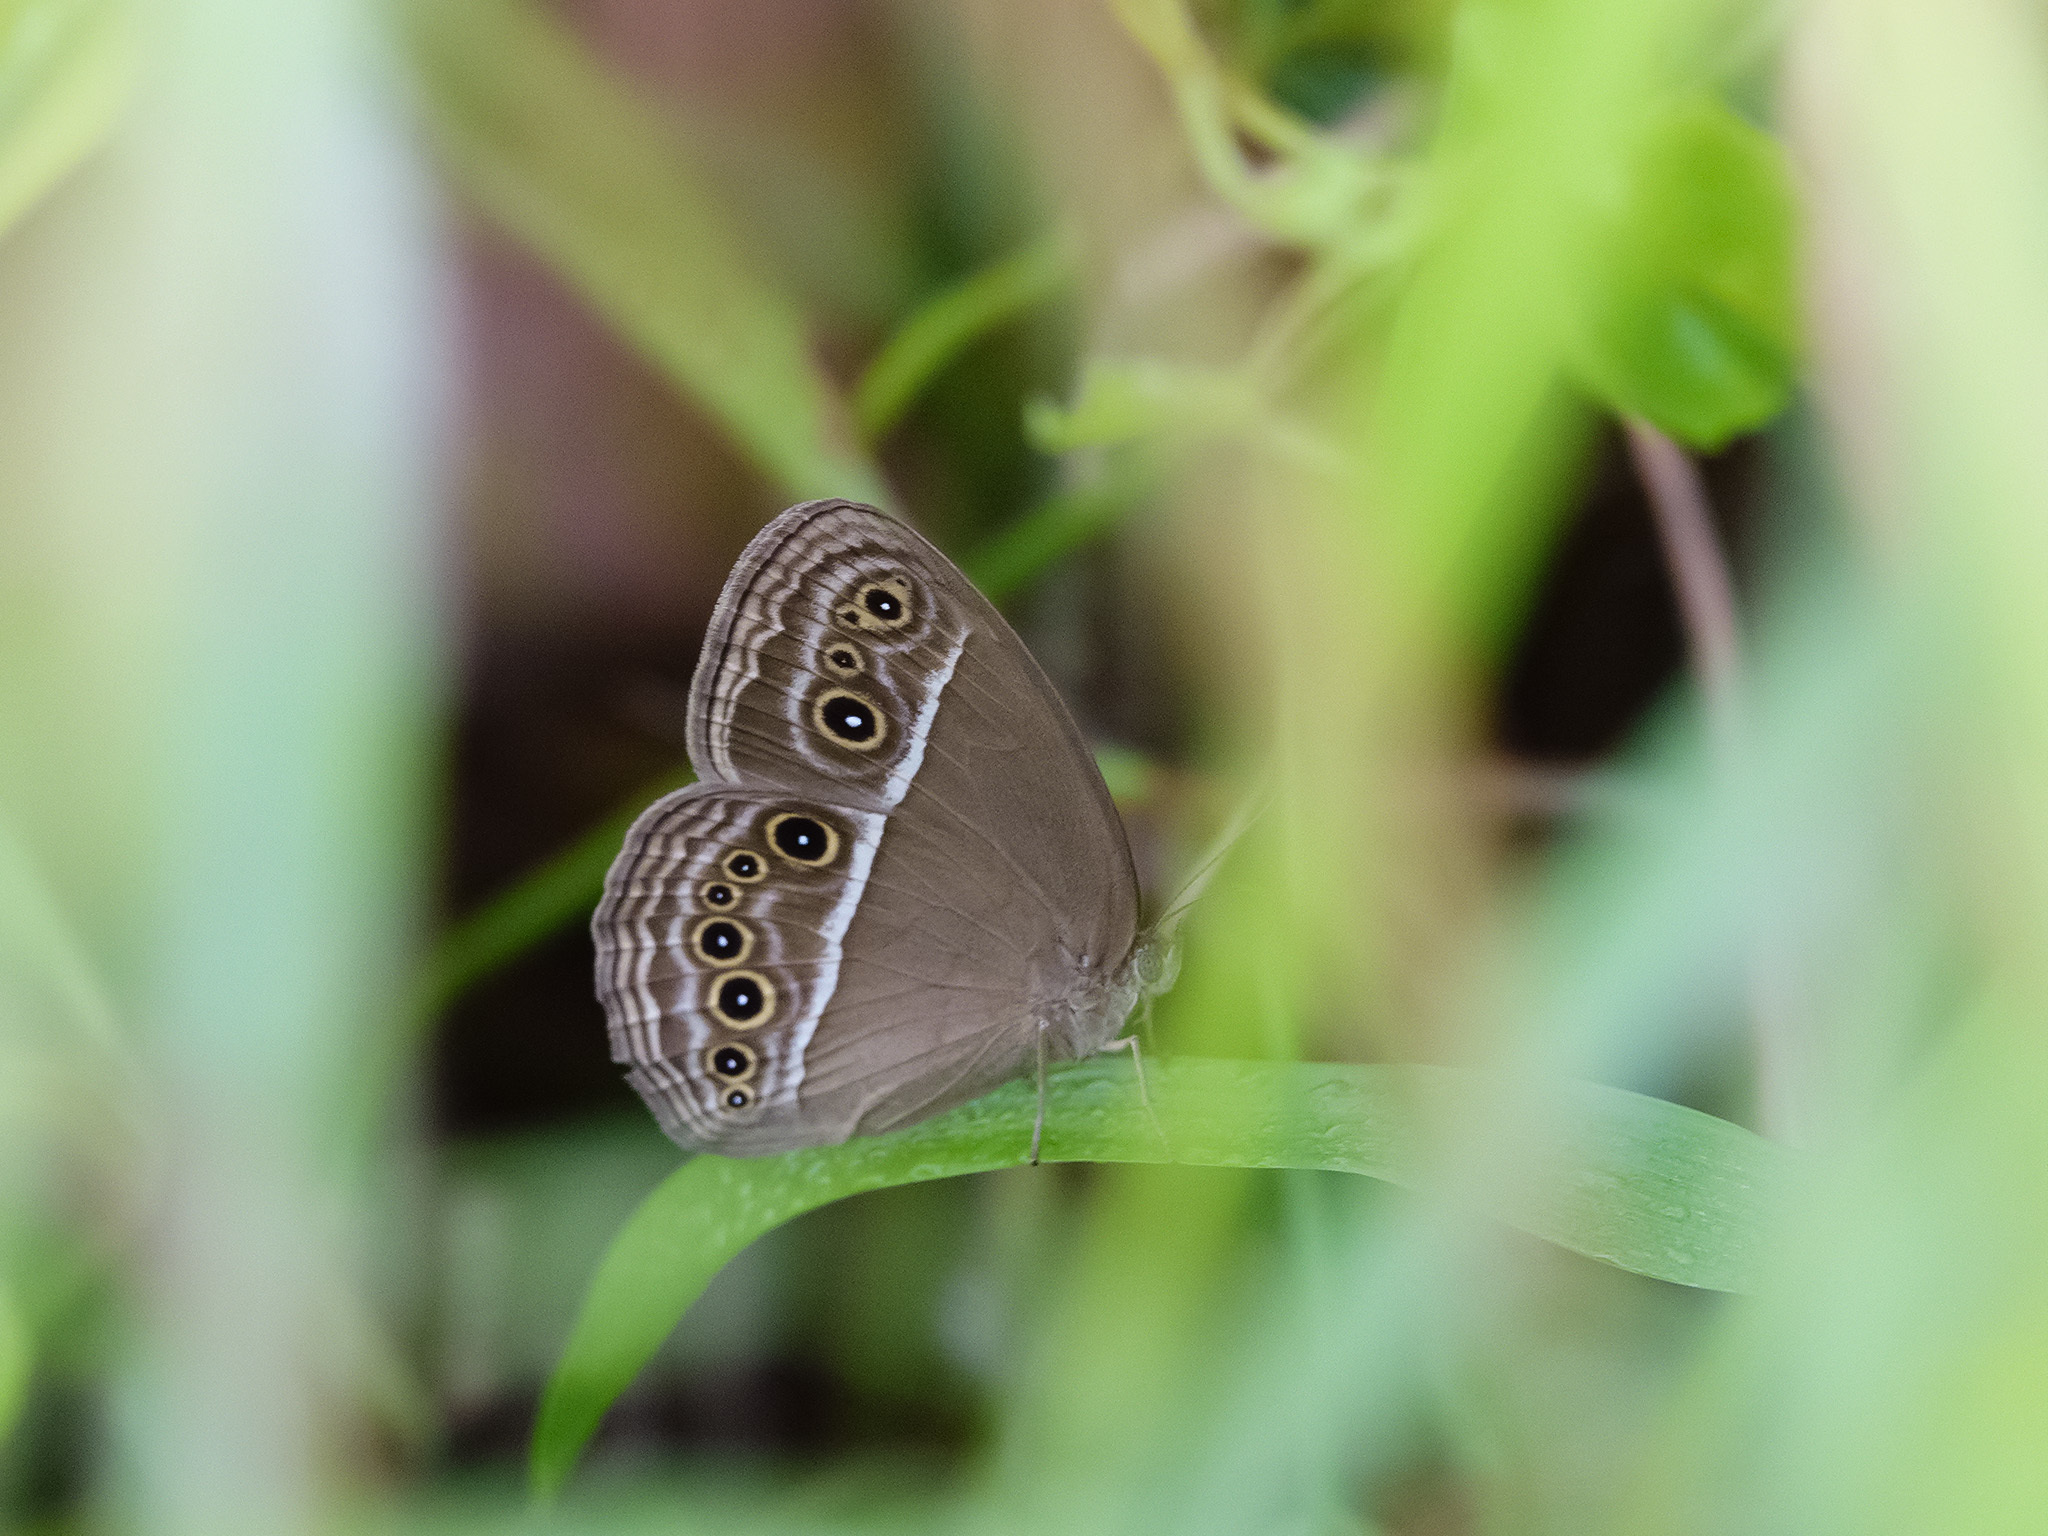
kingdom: Animalia
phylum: Arthropoda
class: Insecta
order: Lepidoptera
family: Nymphalidae
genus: Mycalesis
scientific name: Mycalesis mineus
